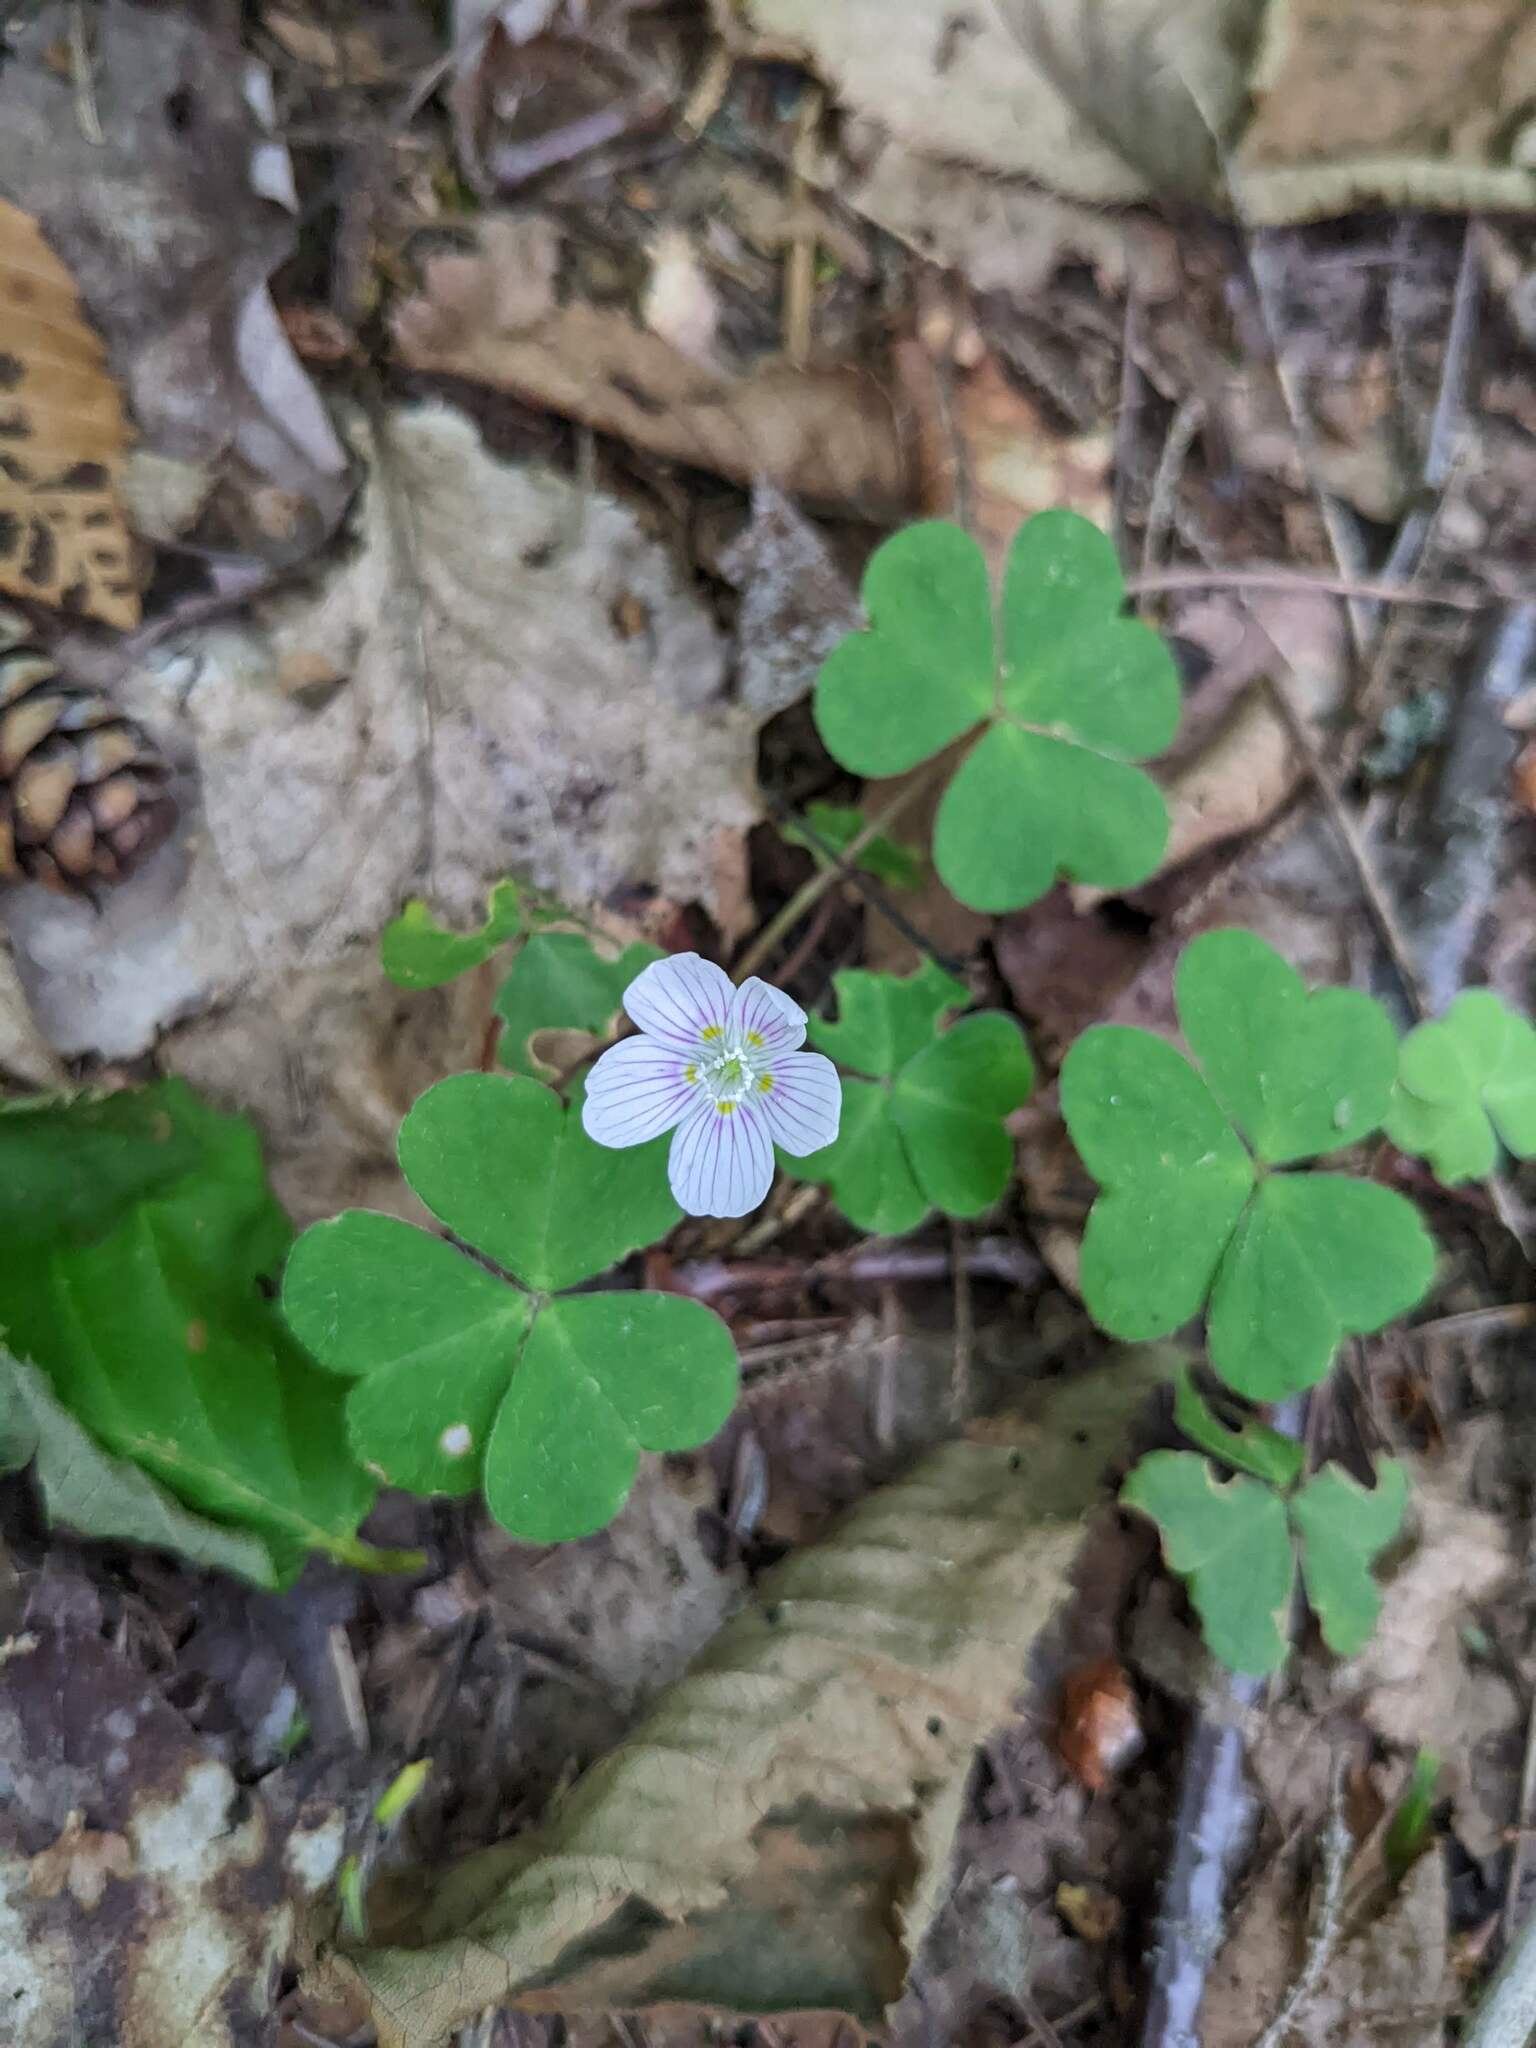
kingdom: Plantae
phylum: Tracheophyta
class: Magnoliopsida
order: Oxalidales
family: Oxalidaceae
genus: Oxalis
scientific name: Oxalis montana
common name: American wood-sorrel
